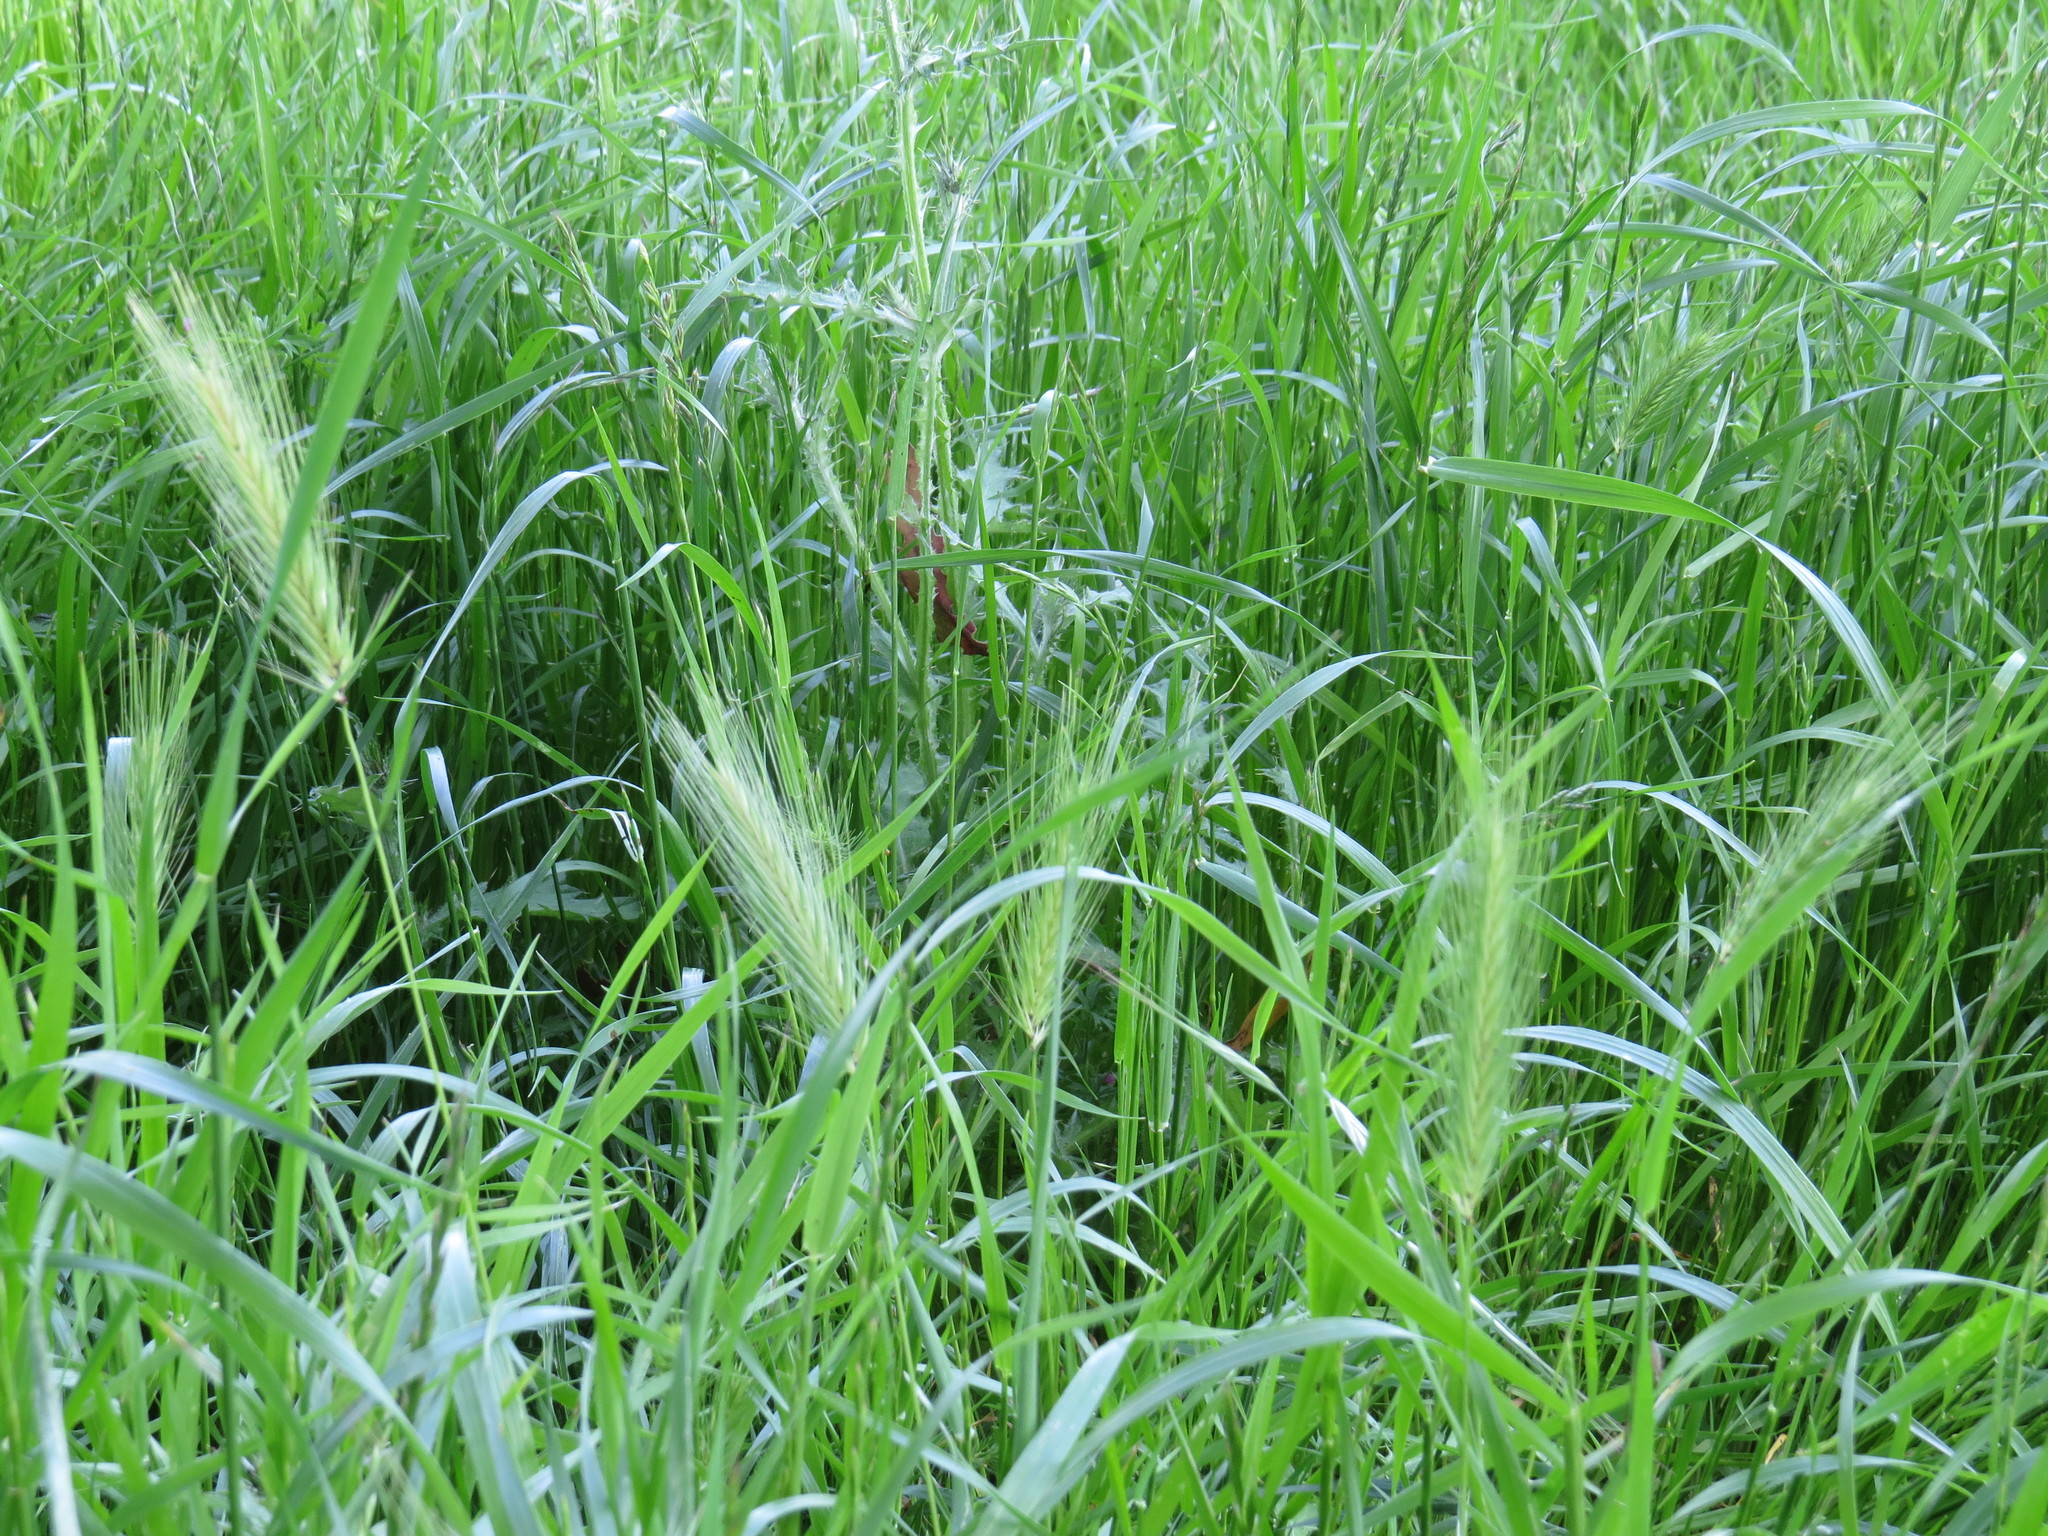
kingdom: Plantae
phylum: Tracheophyta
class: Liliopsida
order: Poales
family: Poaceae
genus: Hordeum
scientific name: Hordeum murinum
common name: Wall barley
